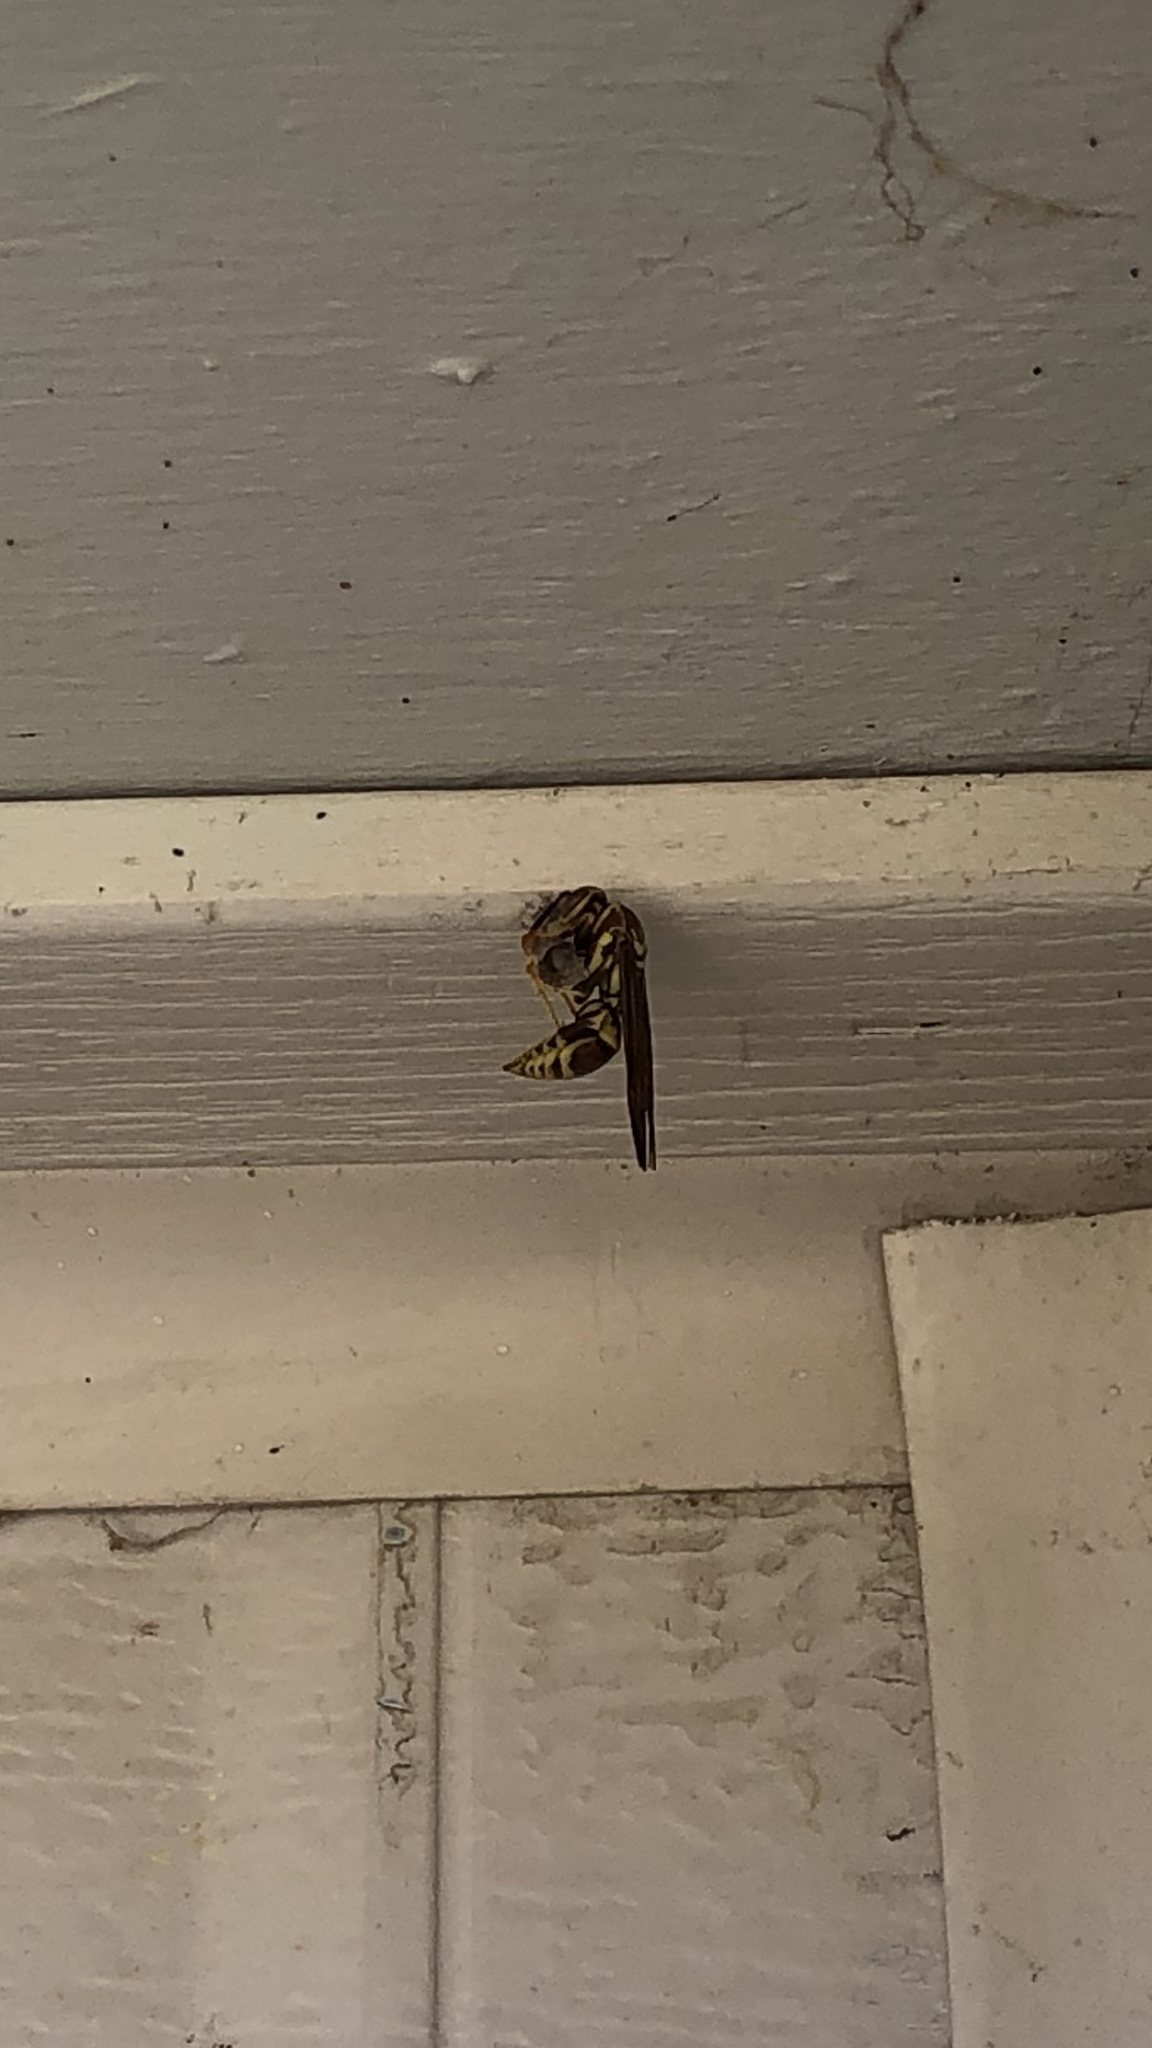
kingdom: Animalia
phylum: Arthropoda
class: Insecta
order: Hymenoptera
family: Eumenidae
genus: Polistes
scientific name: Polistes exclamans
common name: Paper wasp
